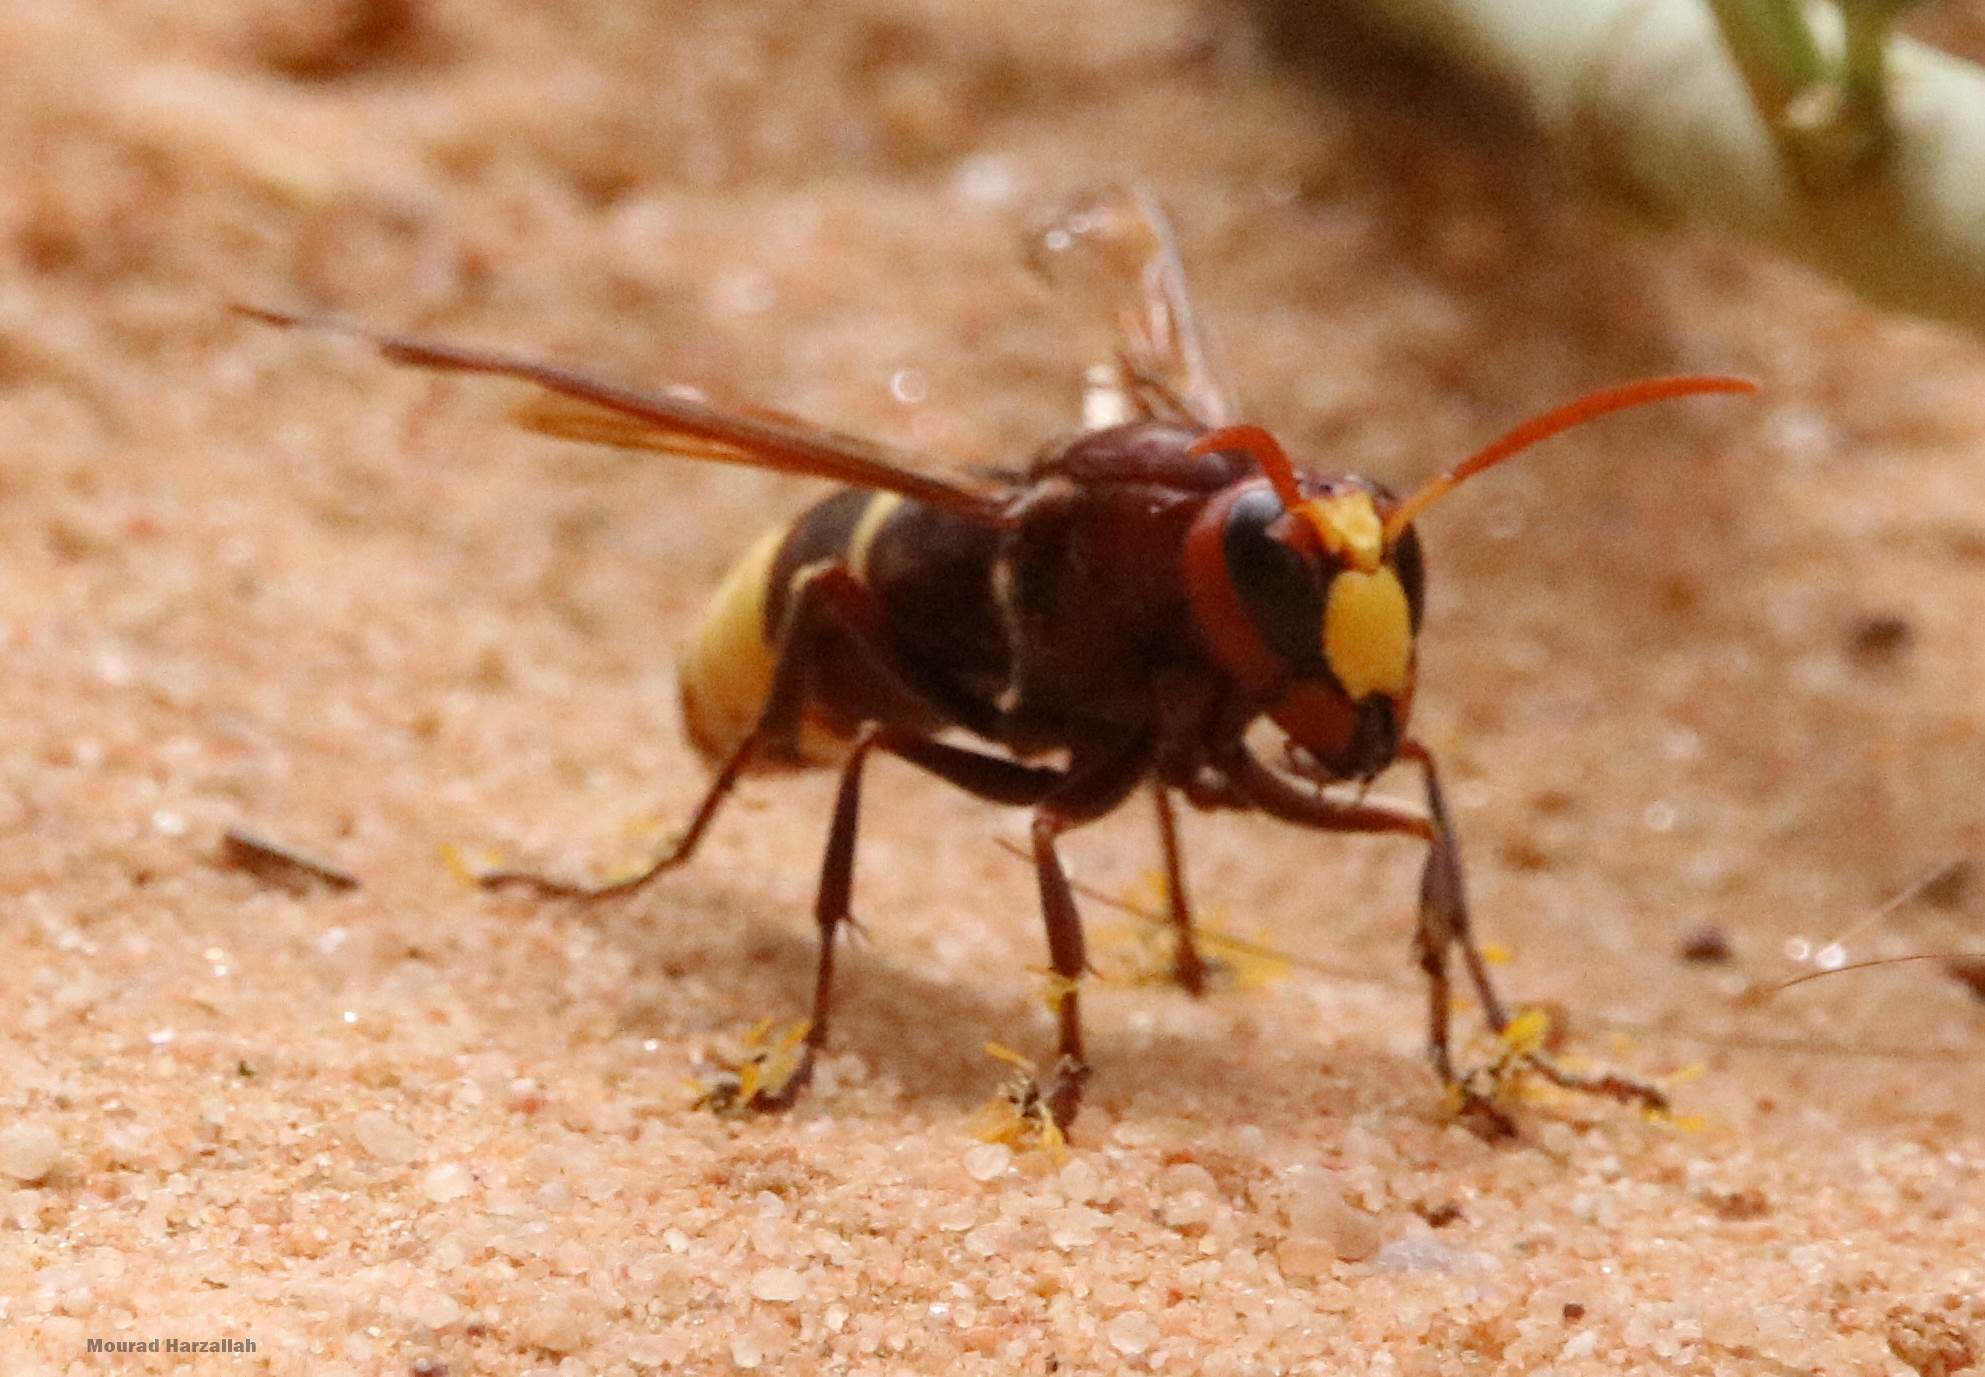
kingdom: Animalia
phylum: Arthropoda
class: Insecta
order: Hymenoptera
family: Vespidae
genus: Vespa
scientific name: Vespa orientalis
